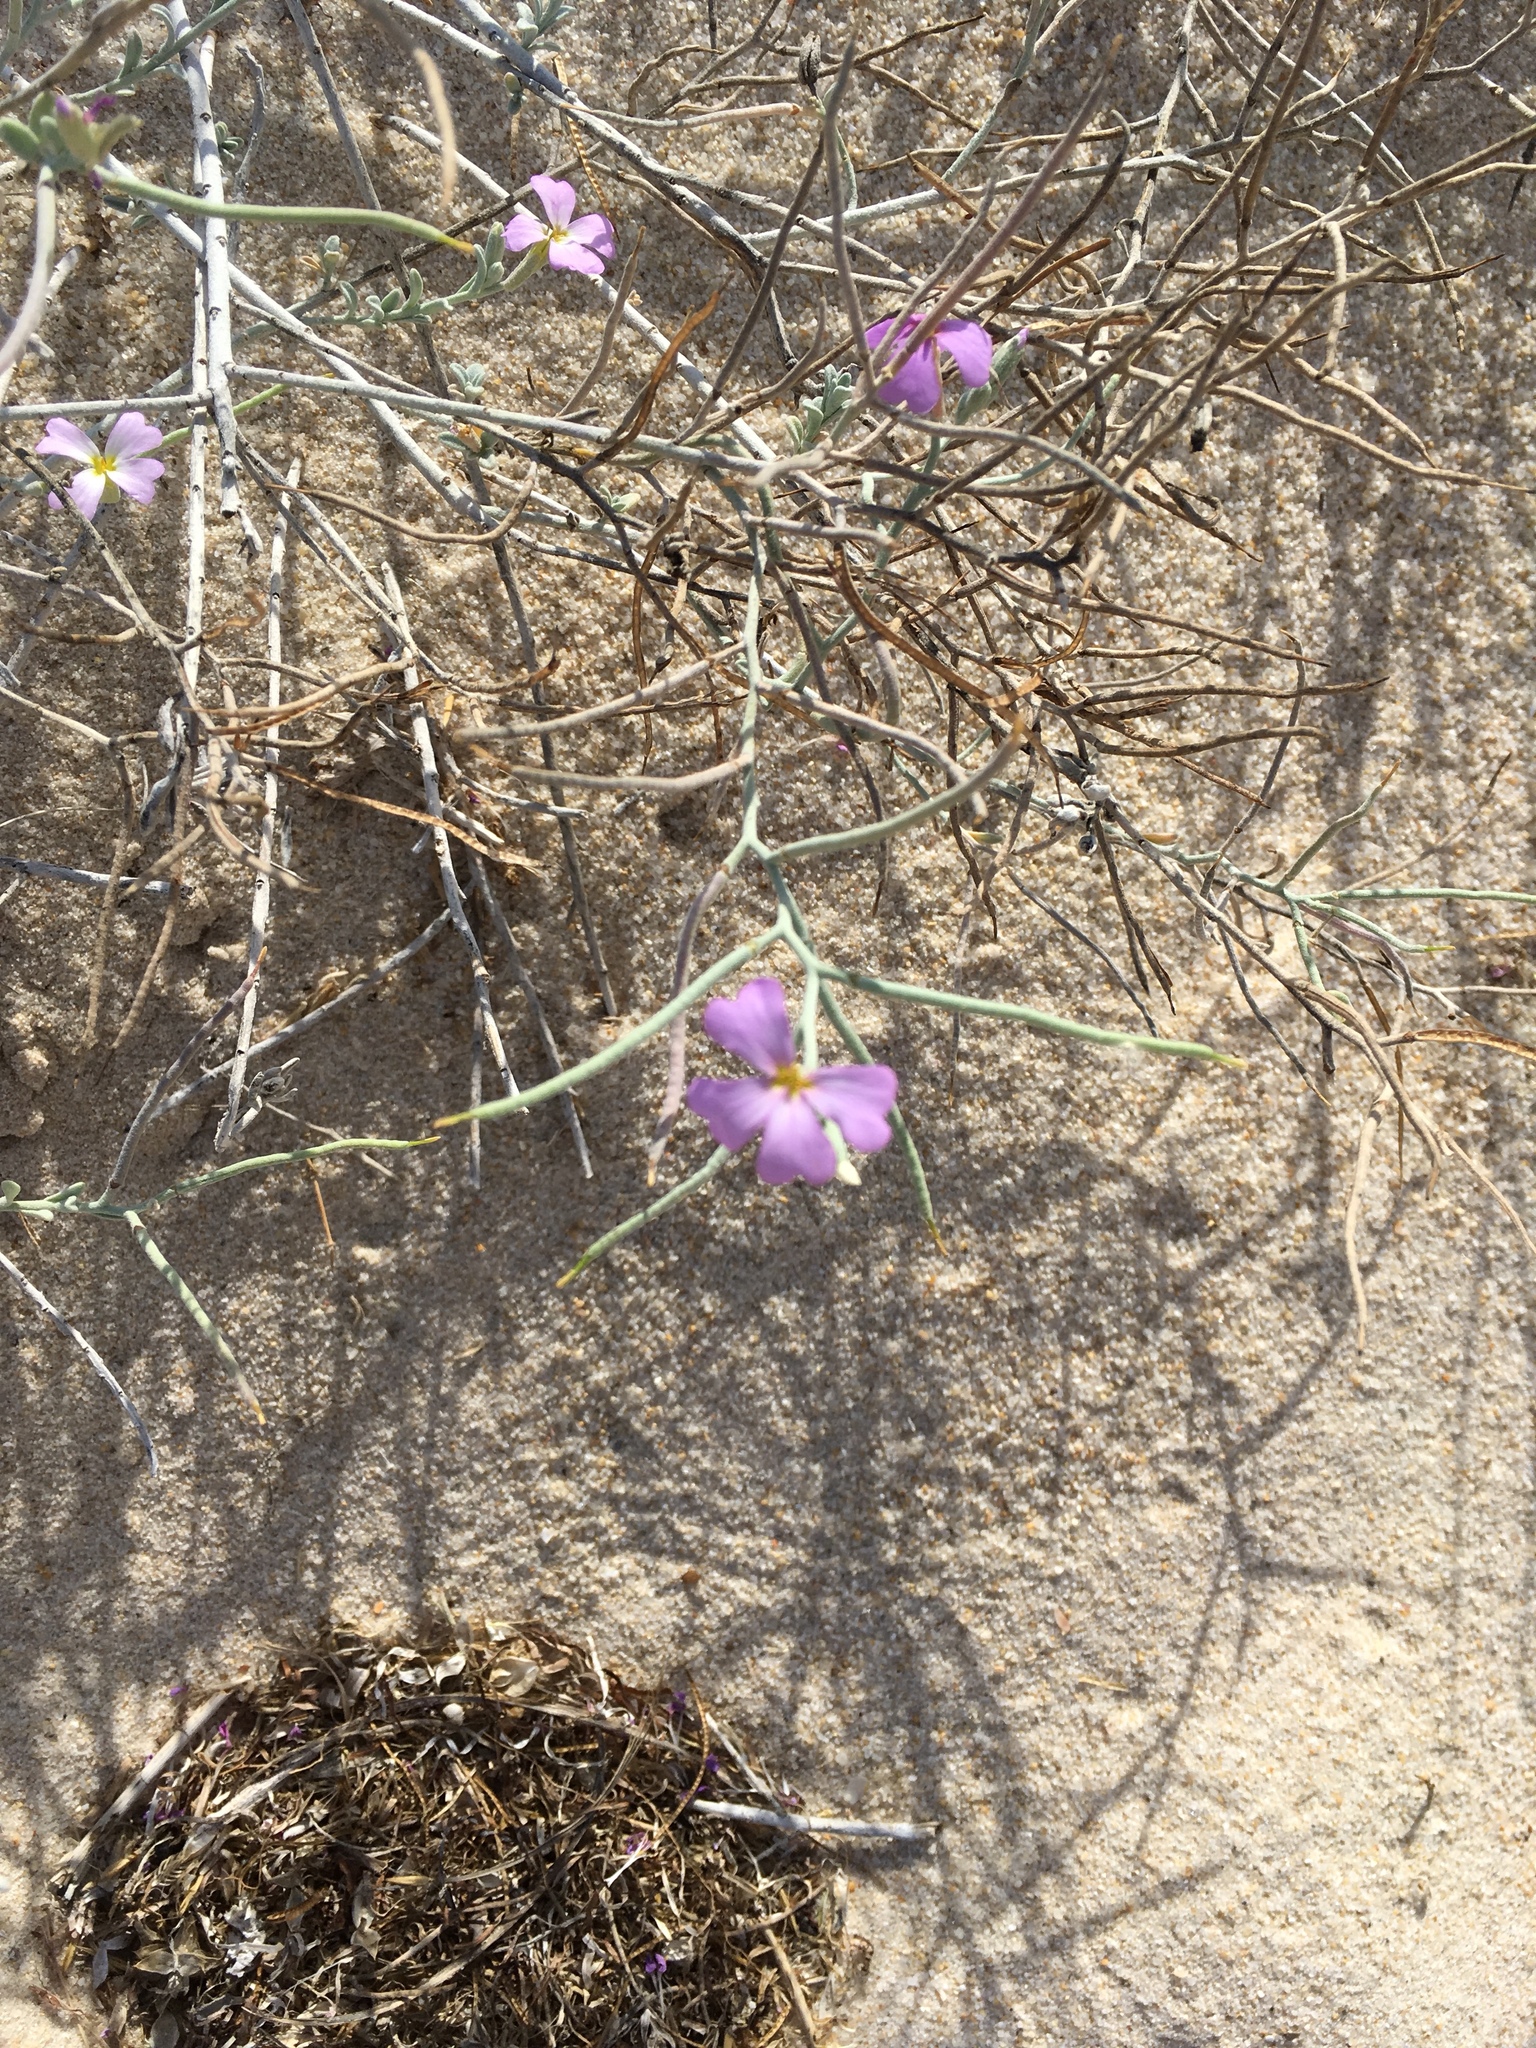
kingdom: Plantae
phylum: Tracheophyta
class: Magnoliopsida
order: Brassicales
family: Brassicaceae
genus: Marcuskochia
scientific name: Marcuskochia littorea
